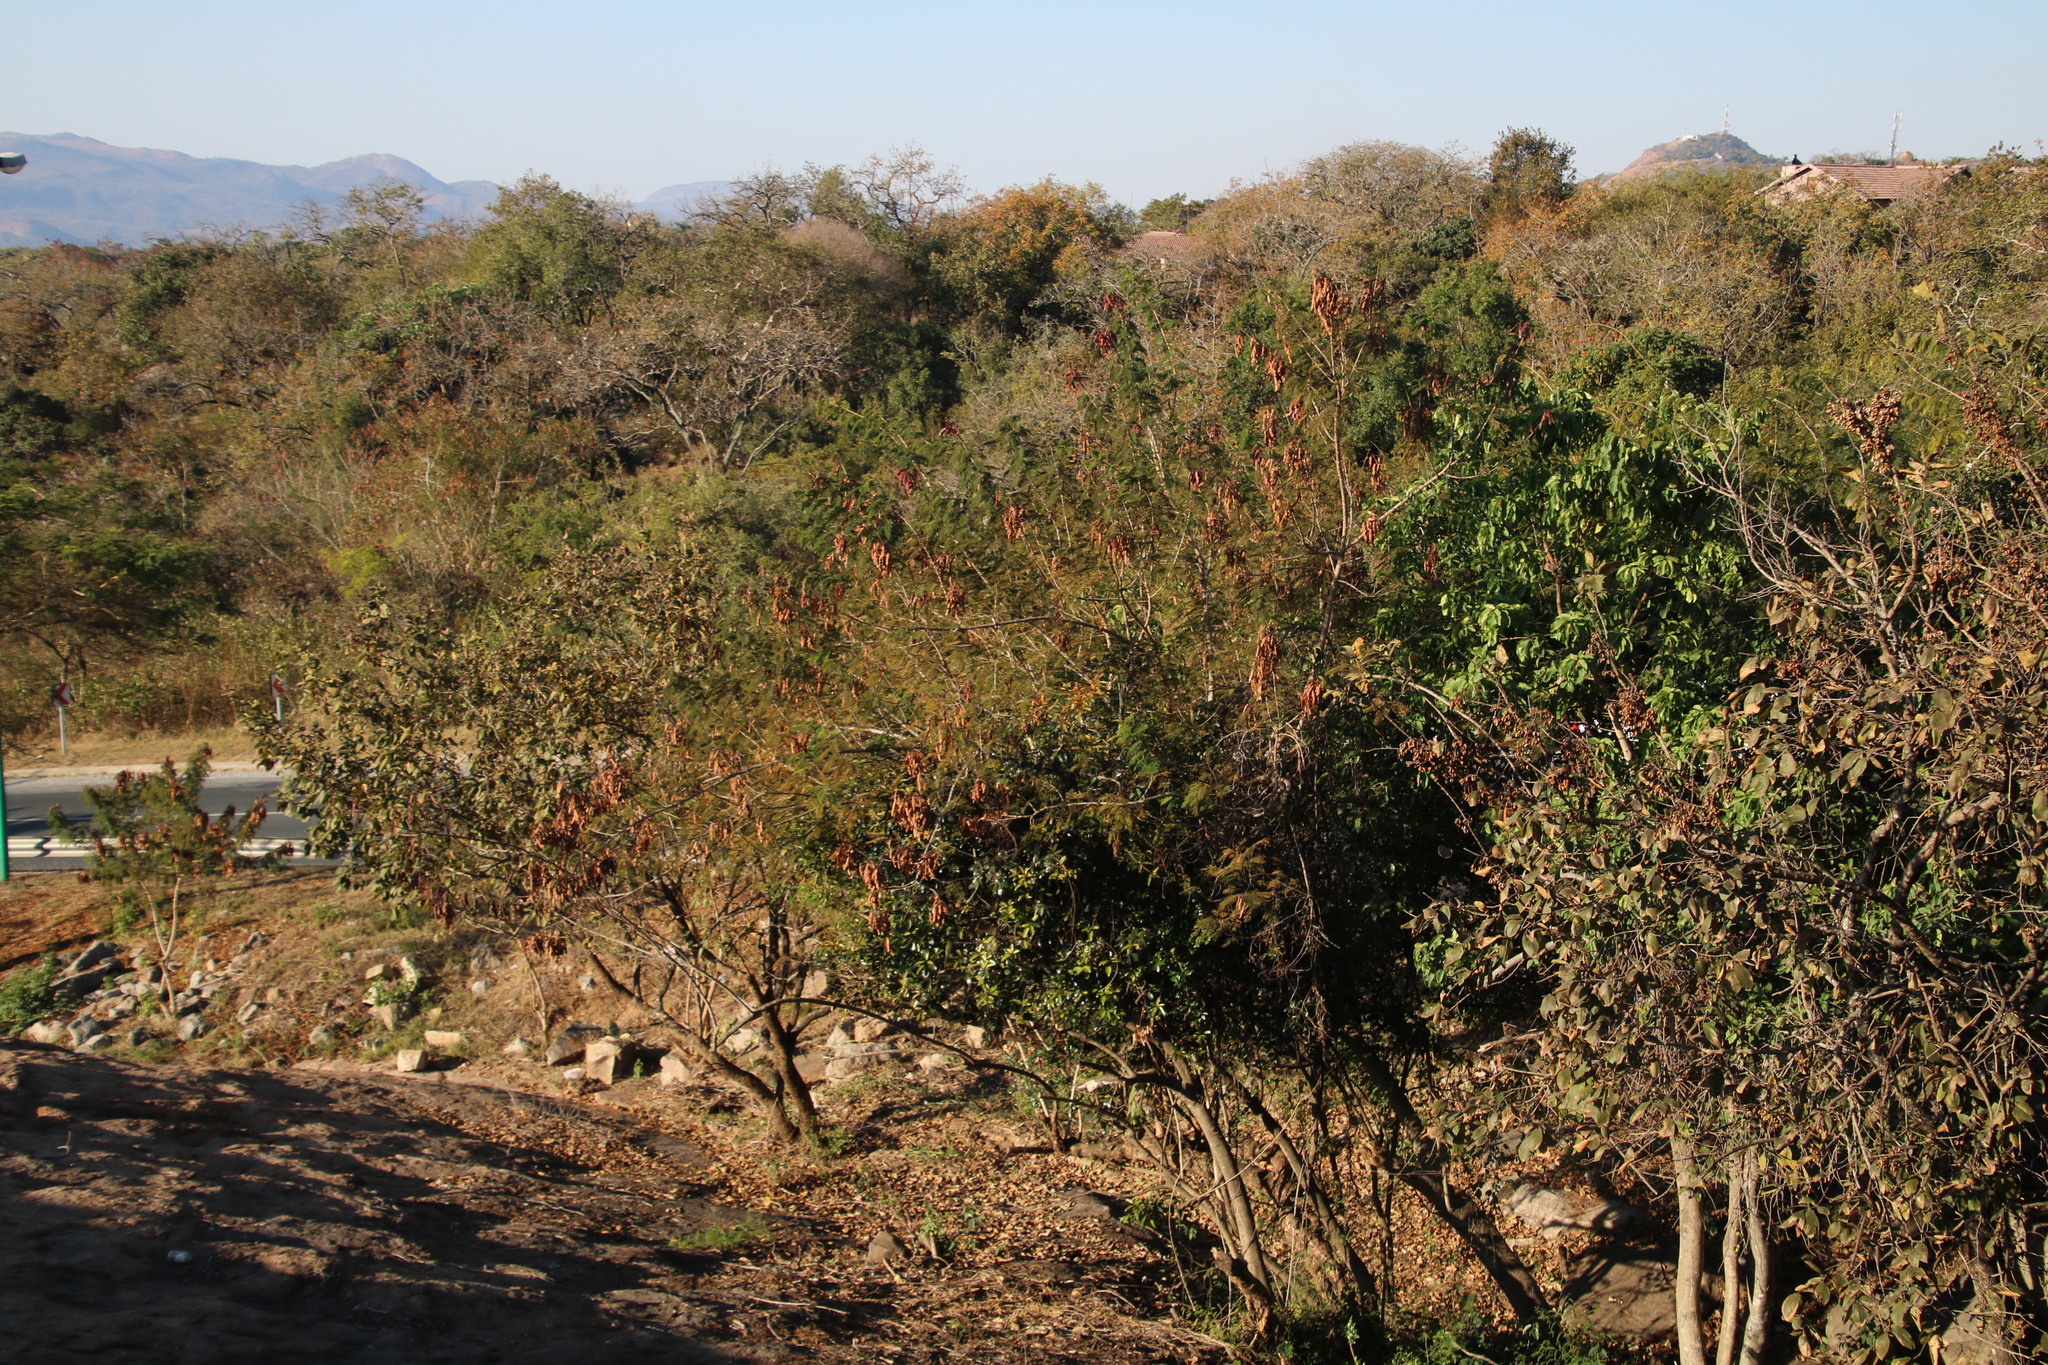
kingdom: Plantae
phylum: Tracheophyta
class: Magnoliopsida
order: Fabales
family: Fabaceae
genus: Senegalia
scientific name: Senegalia ataxacantha
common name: Flame acacia
